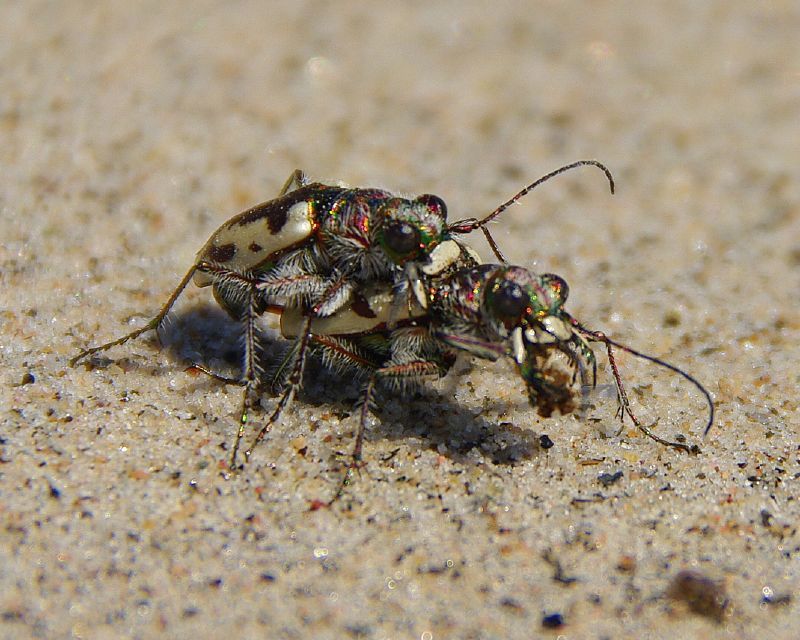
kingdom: Animalia
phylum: Arthropoda
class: Insecta
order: Coleoptera
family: Carabidae
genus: Cicindela
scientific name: Cicindela limbata
